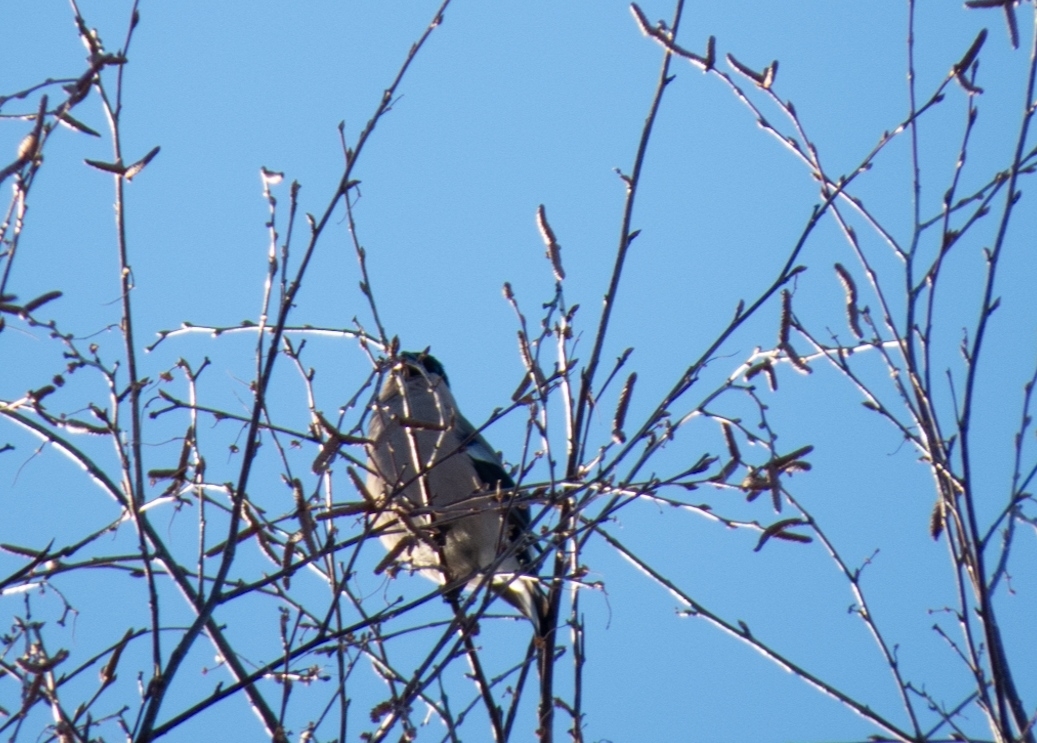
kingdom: Animalia
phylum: Chordata
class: Aves
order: Passeriformes
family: Fringillidae
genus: Pyrrhula
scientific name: Pyrrhula pyrrhula
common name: Eurasian bullfinch
